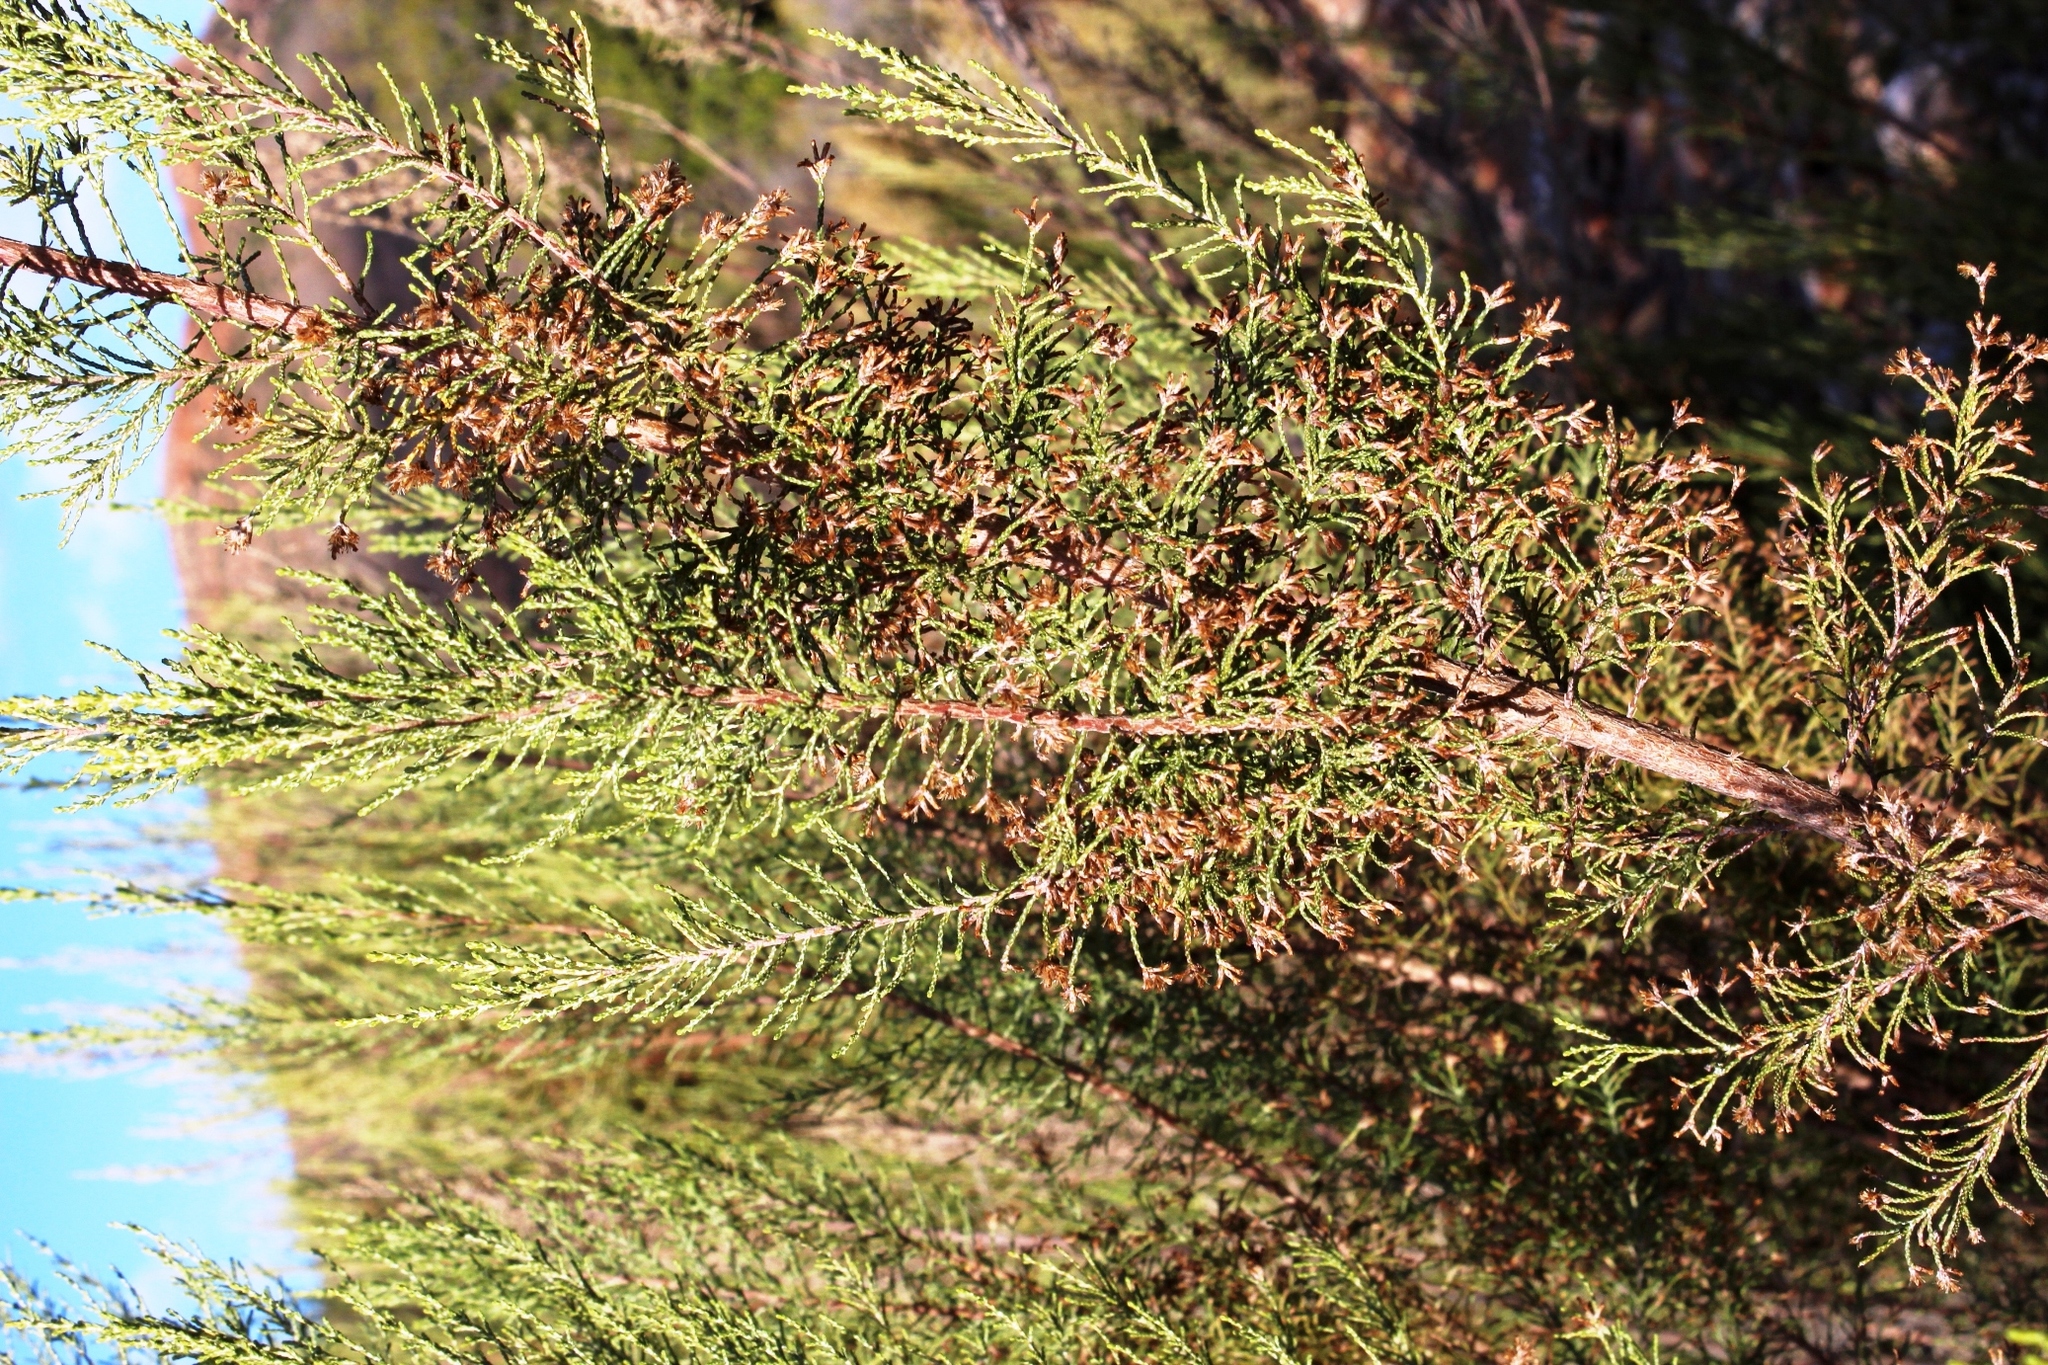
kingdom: Plantae
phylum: Tracheophyta
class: Magnoliopsida
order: Asterales
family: Asteraceae
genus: Dicerothamnus
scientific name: Dicerothamnus rhinocerotis
